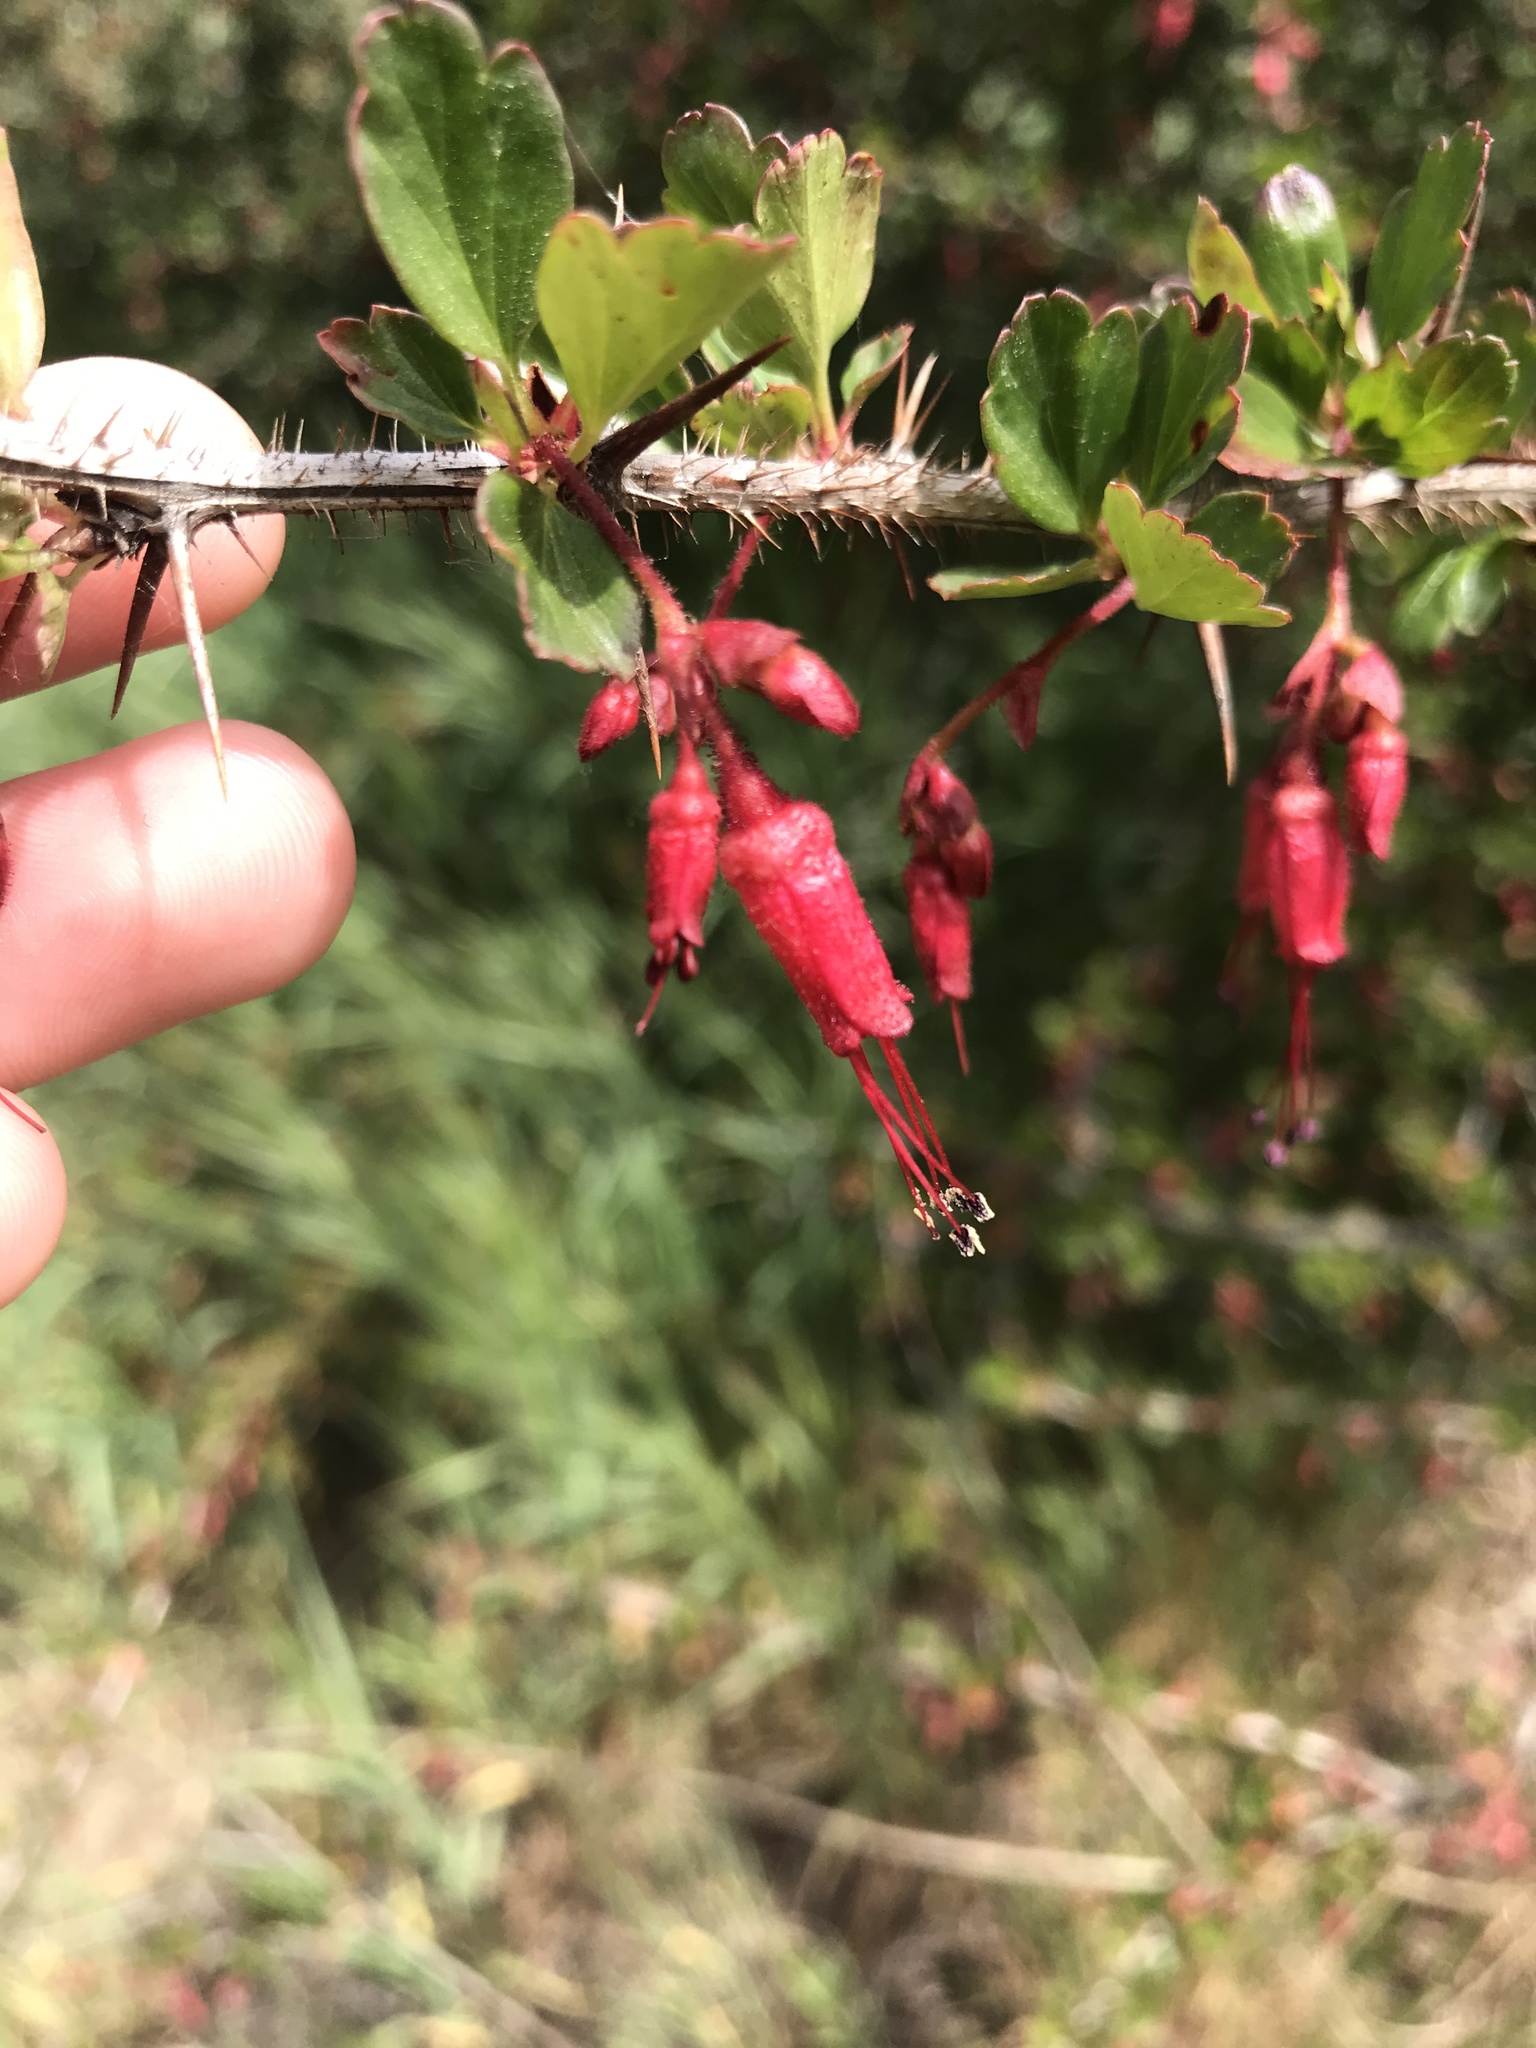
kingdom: Plantae
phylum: Tracheophyta
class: Magnoliopsida
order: Saxifragales
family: Grossulariaceae
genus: Ribes
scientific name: Ribes speciosum
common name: Fuchsia-flower gooseberry
